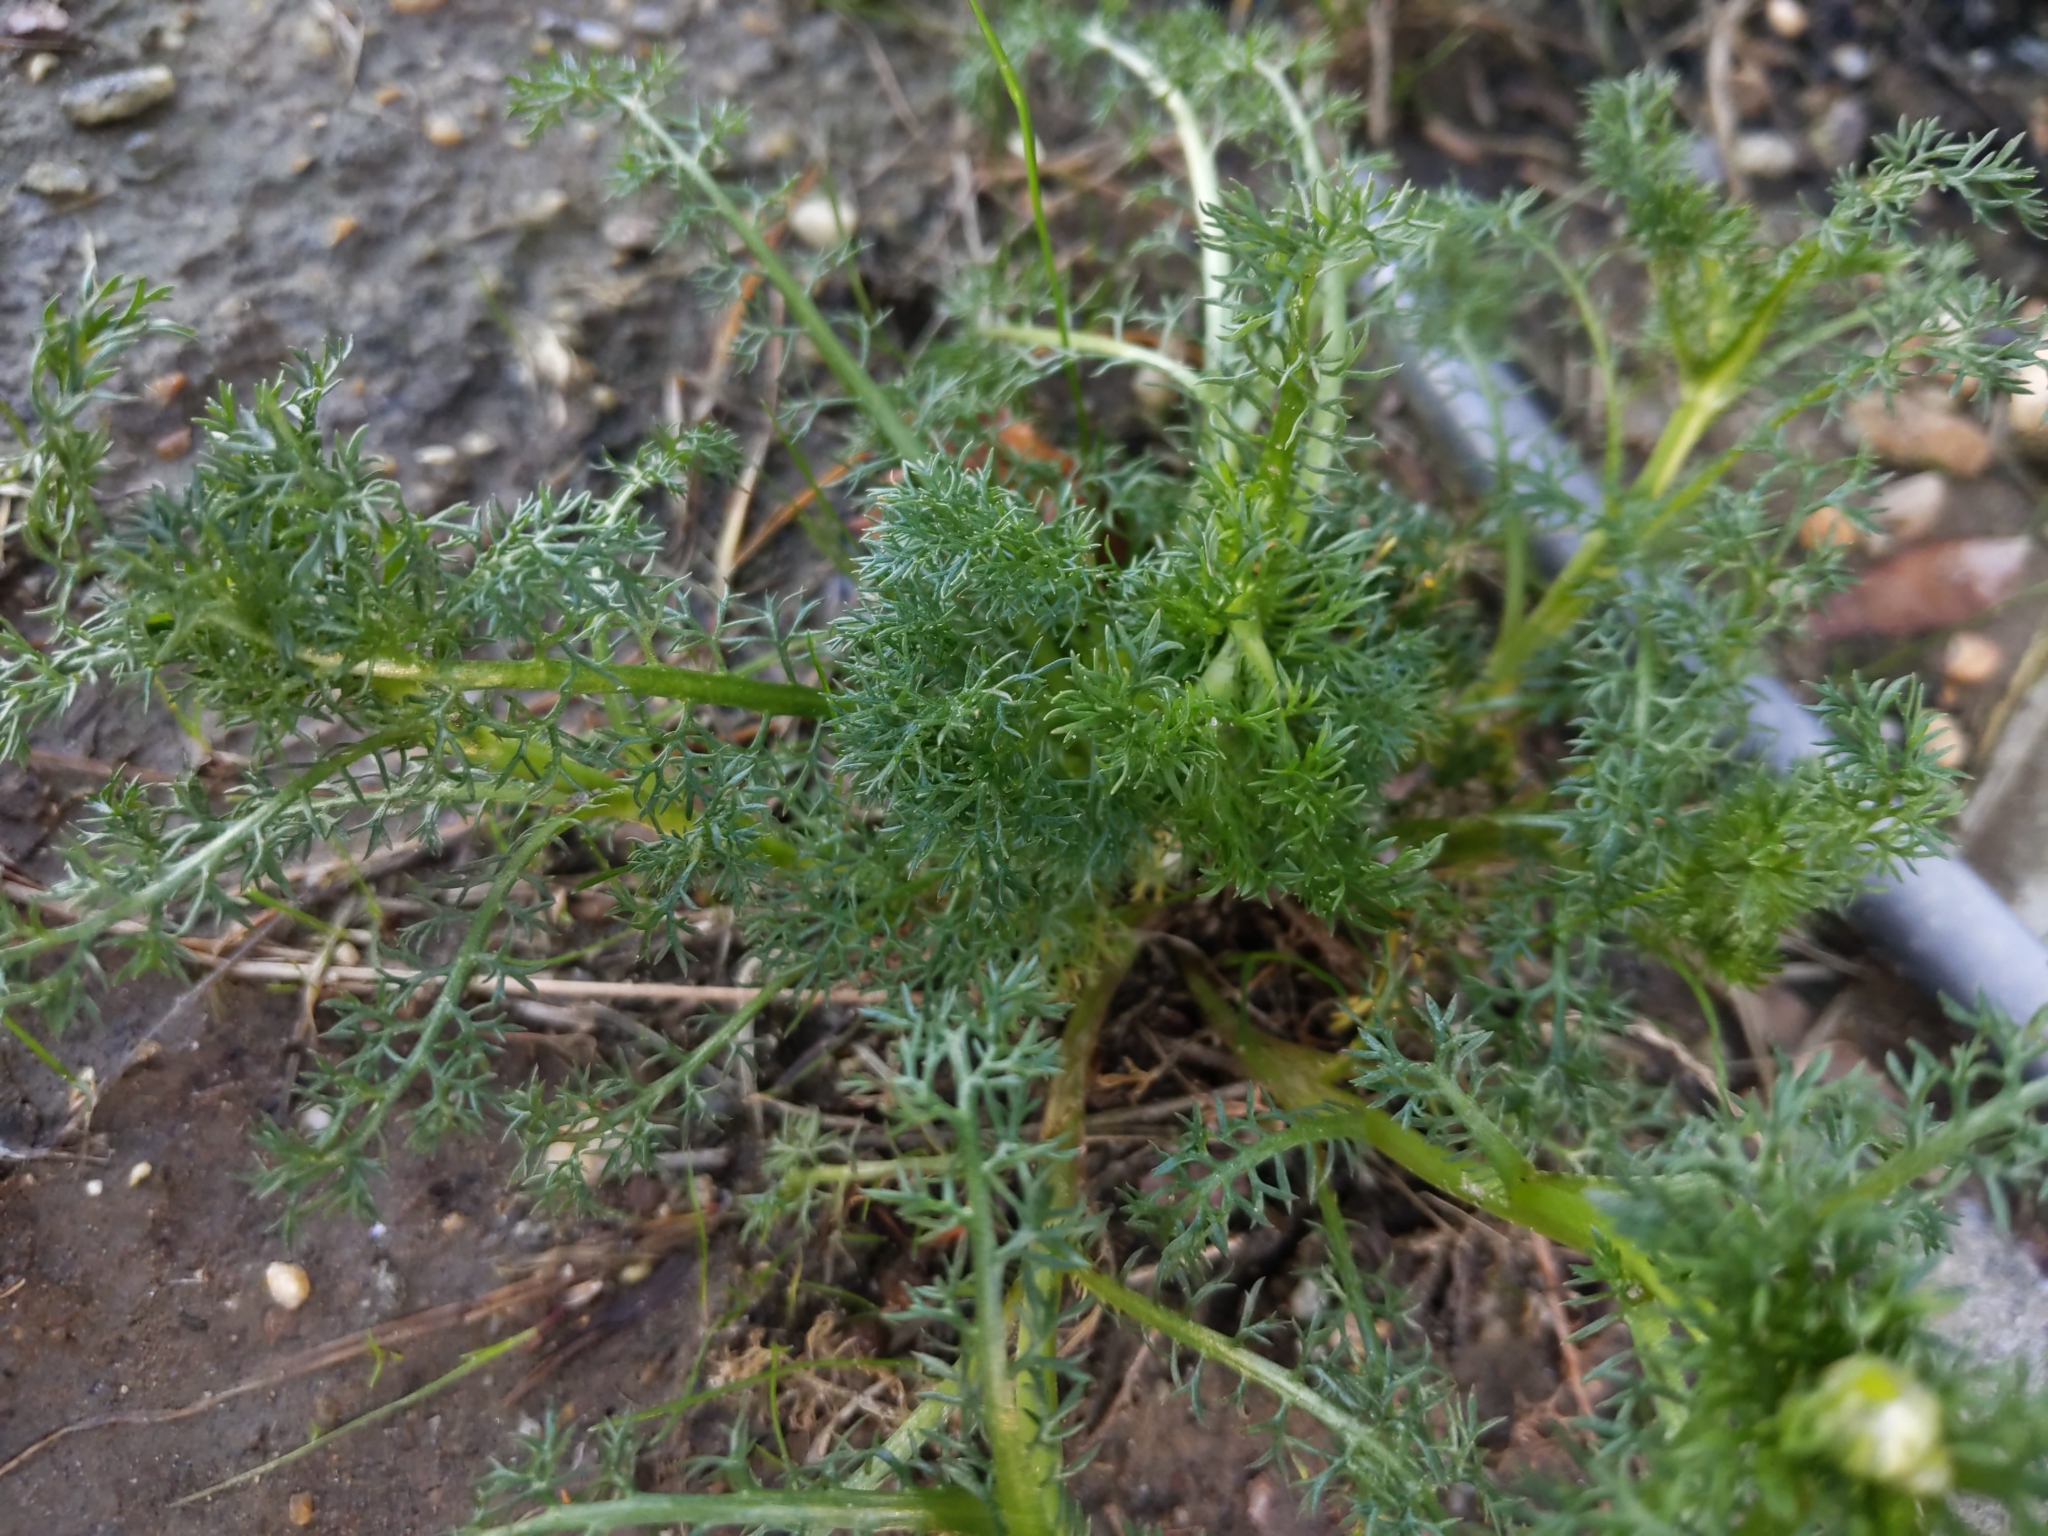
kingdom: Plantae
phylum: Tracheophyta
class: Magnoliopsida
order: Asterales
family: Asteraceae
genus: Matricaria
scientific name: Matricaria discoidea
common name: Disc mayweed
